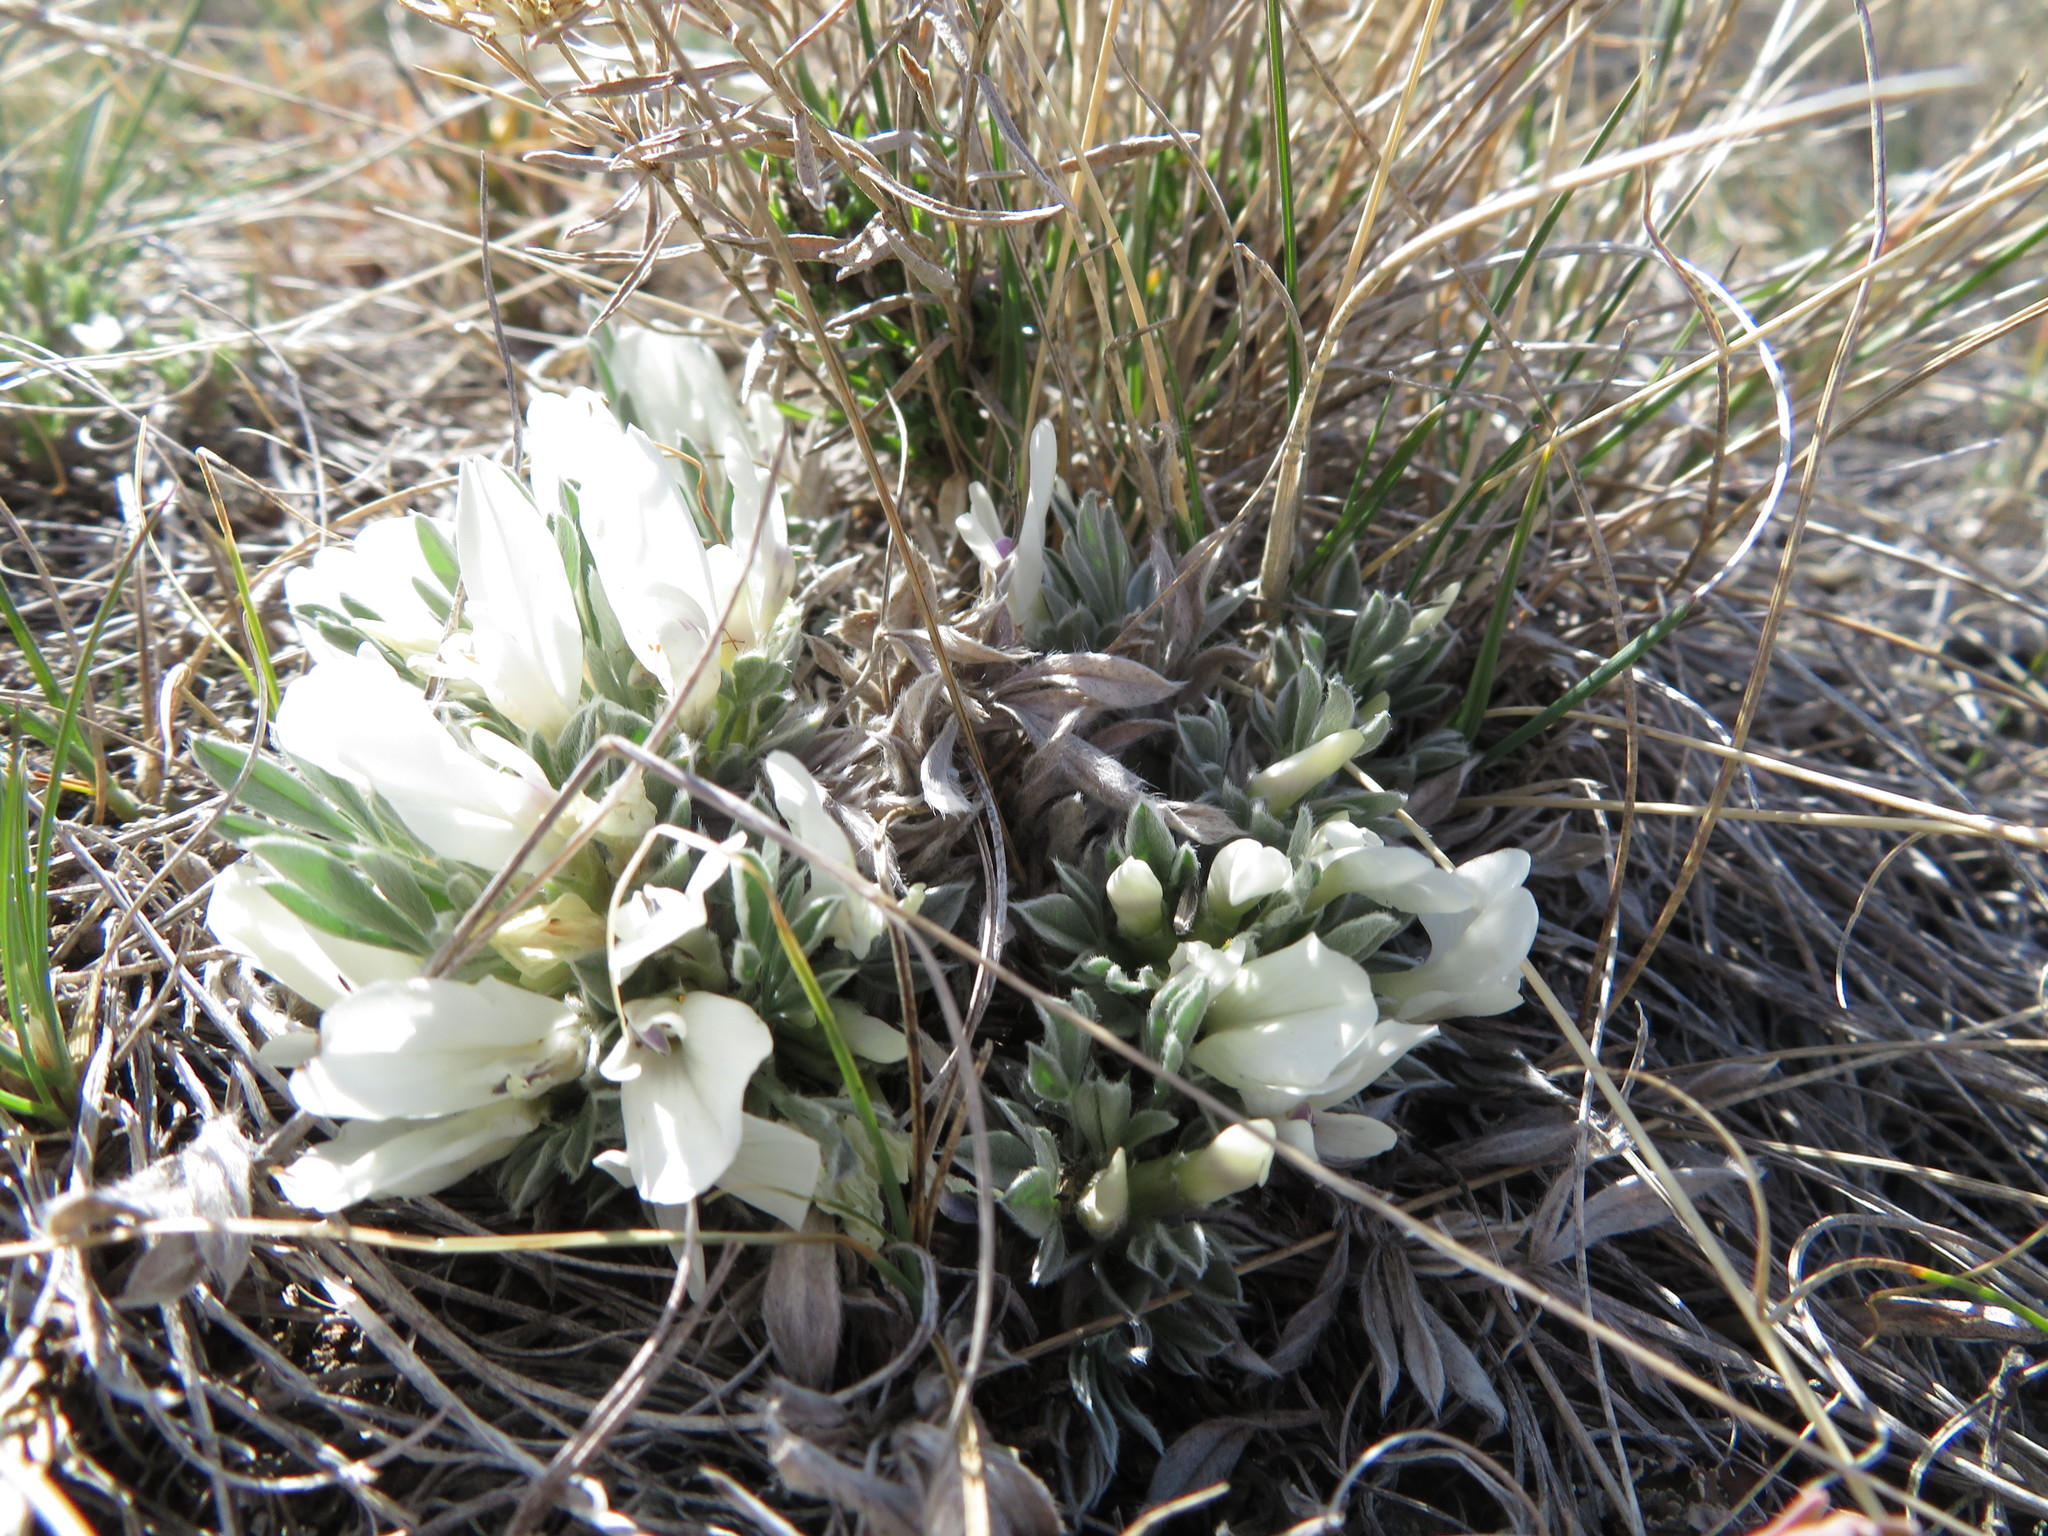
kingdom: Plantae
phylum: Tracheophyta
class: Magnoliopsida
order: Fabales
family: Fabaceae
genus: Astragalus
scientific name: Astragalus gilviflorus
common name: Cushion milk-vetch
